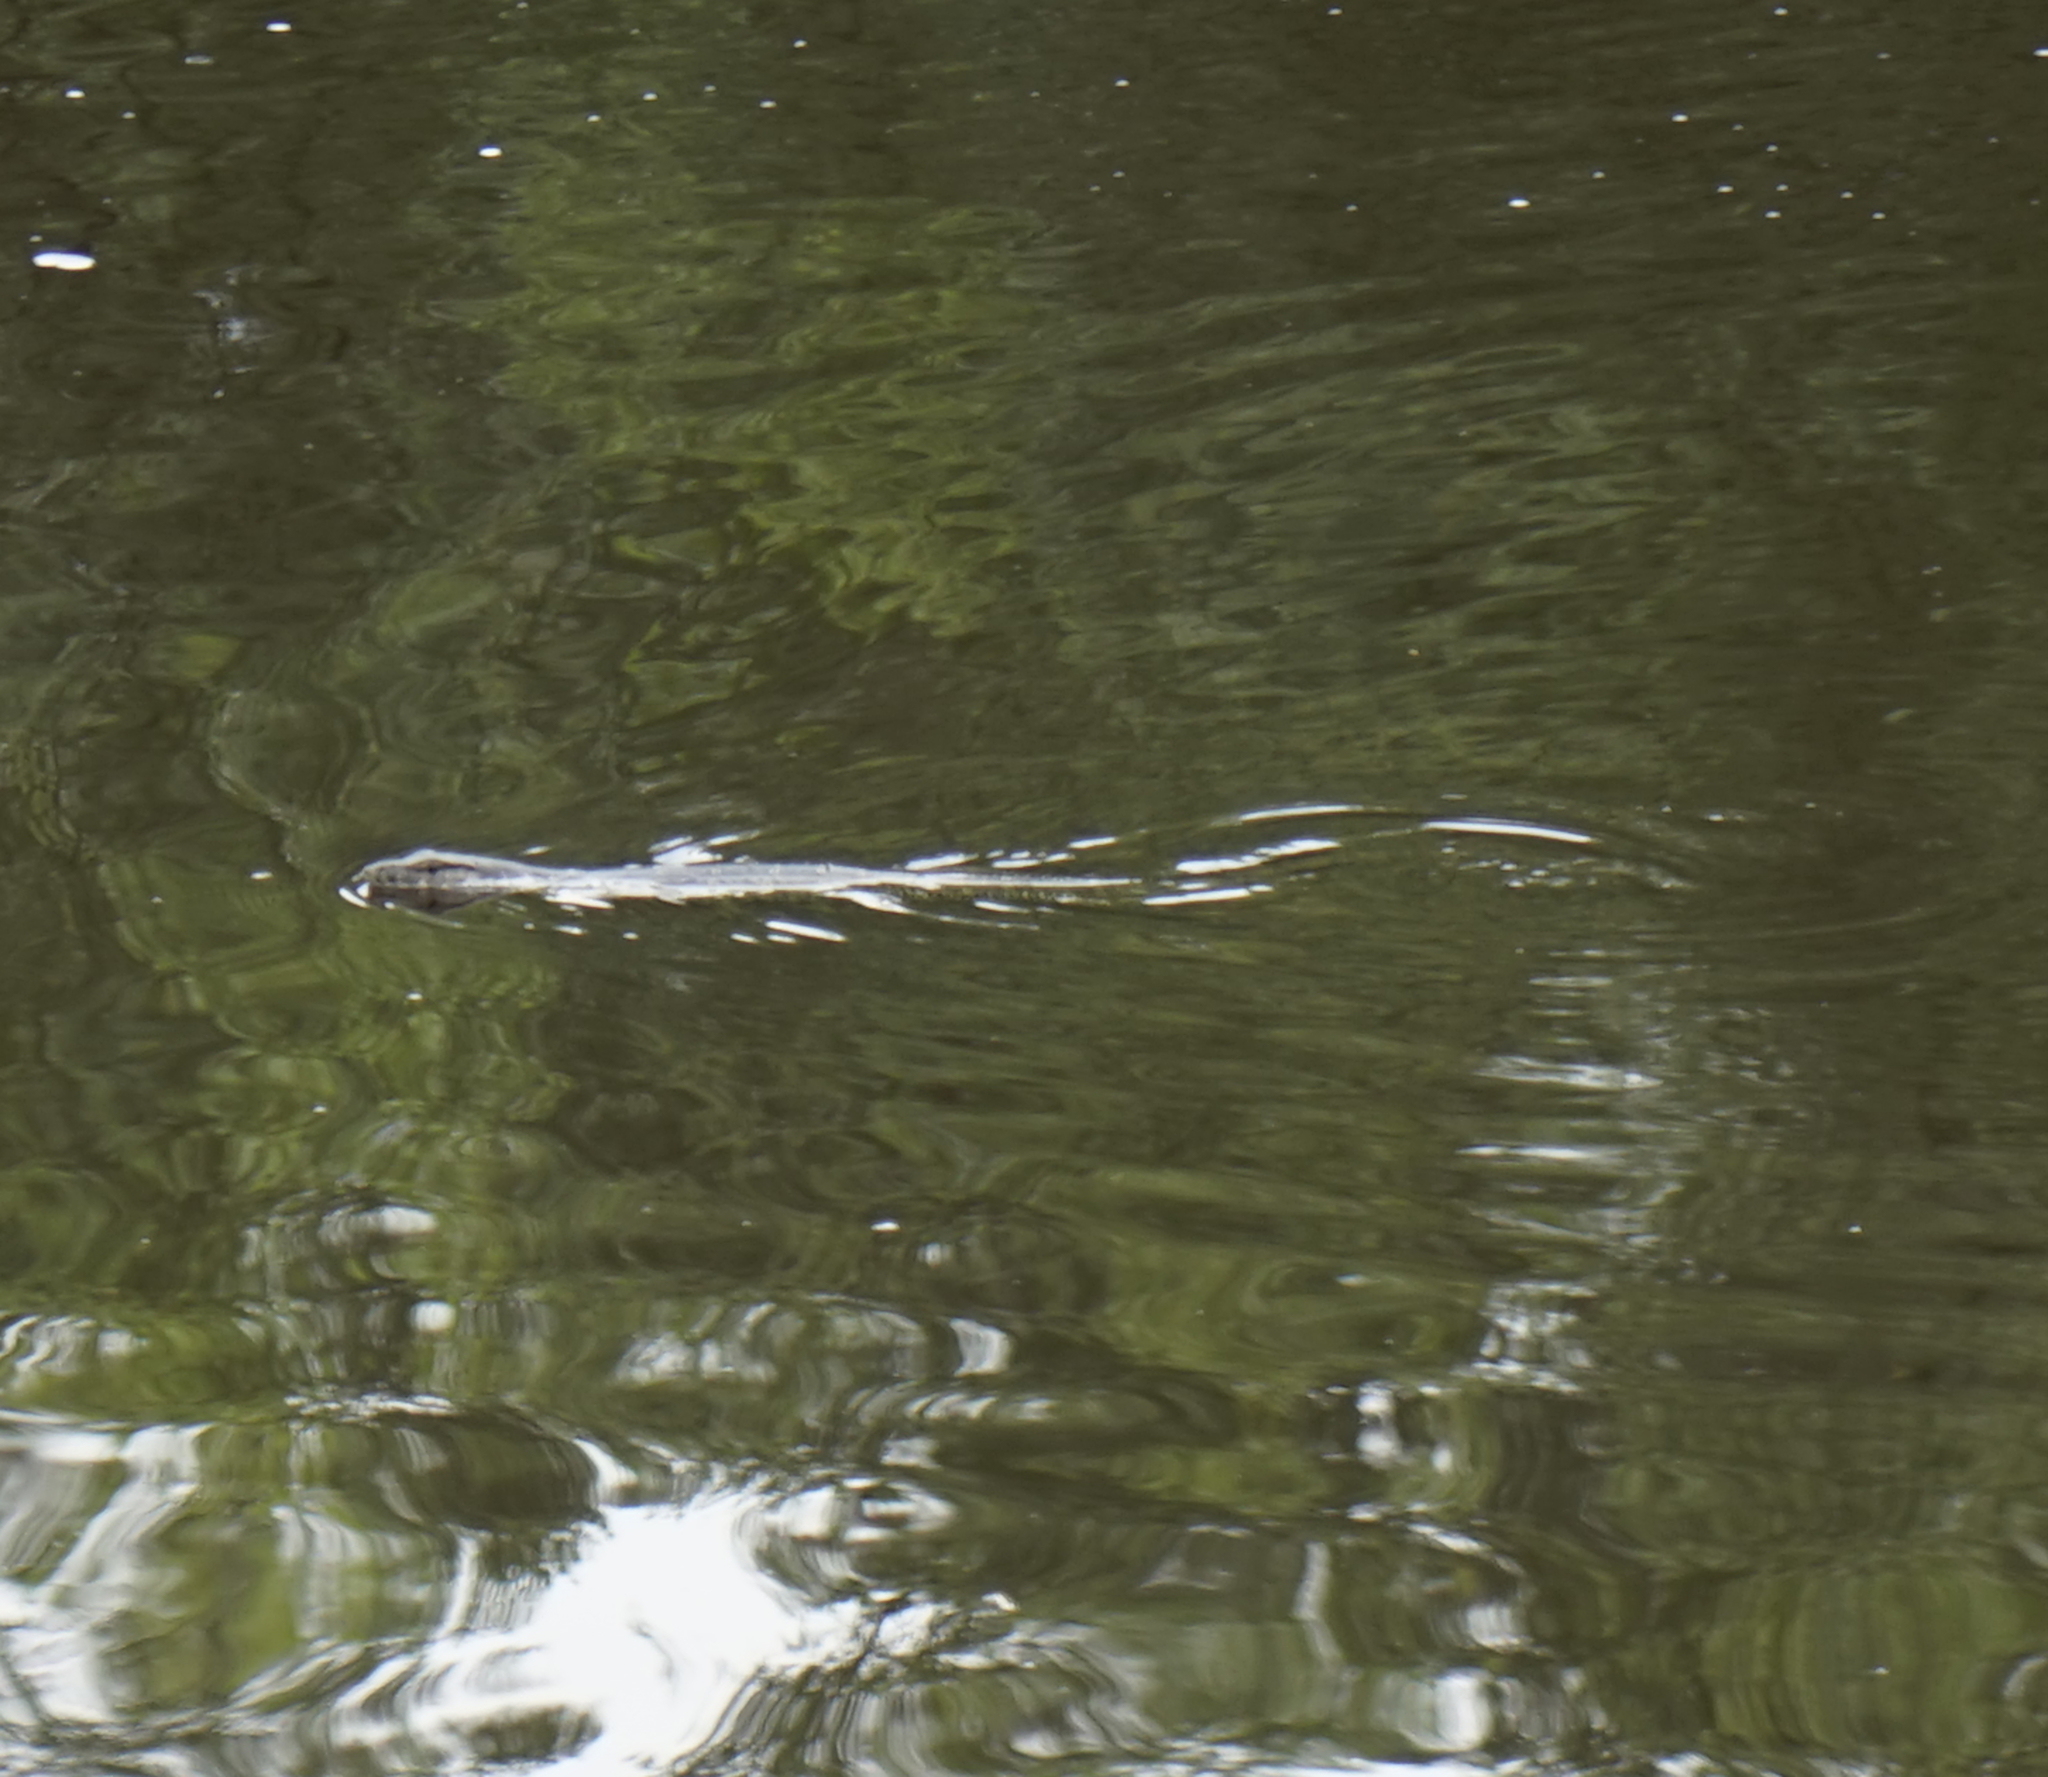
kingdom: Animalia
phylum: Chordata
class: Squamata
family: Varanidae
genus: Varanus
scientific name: Varanus salvator
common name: Common water monitor
